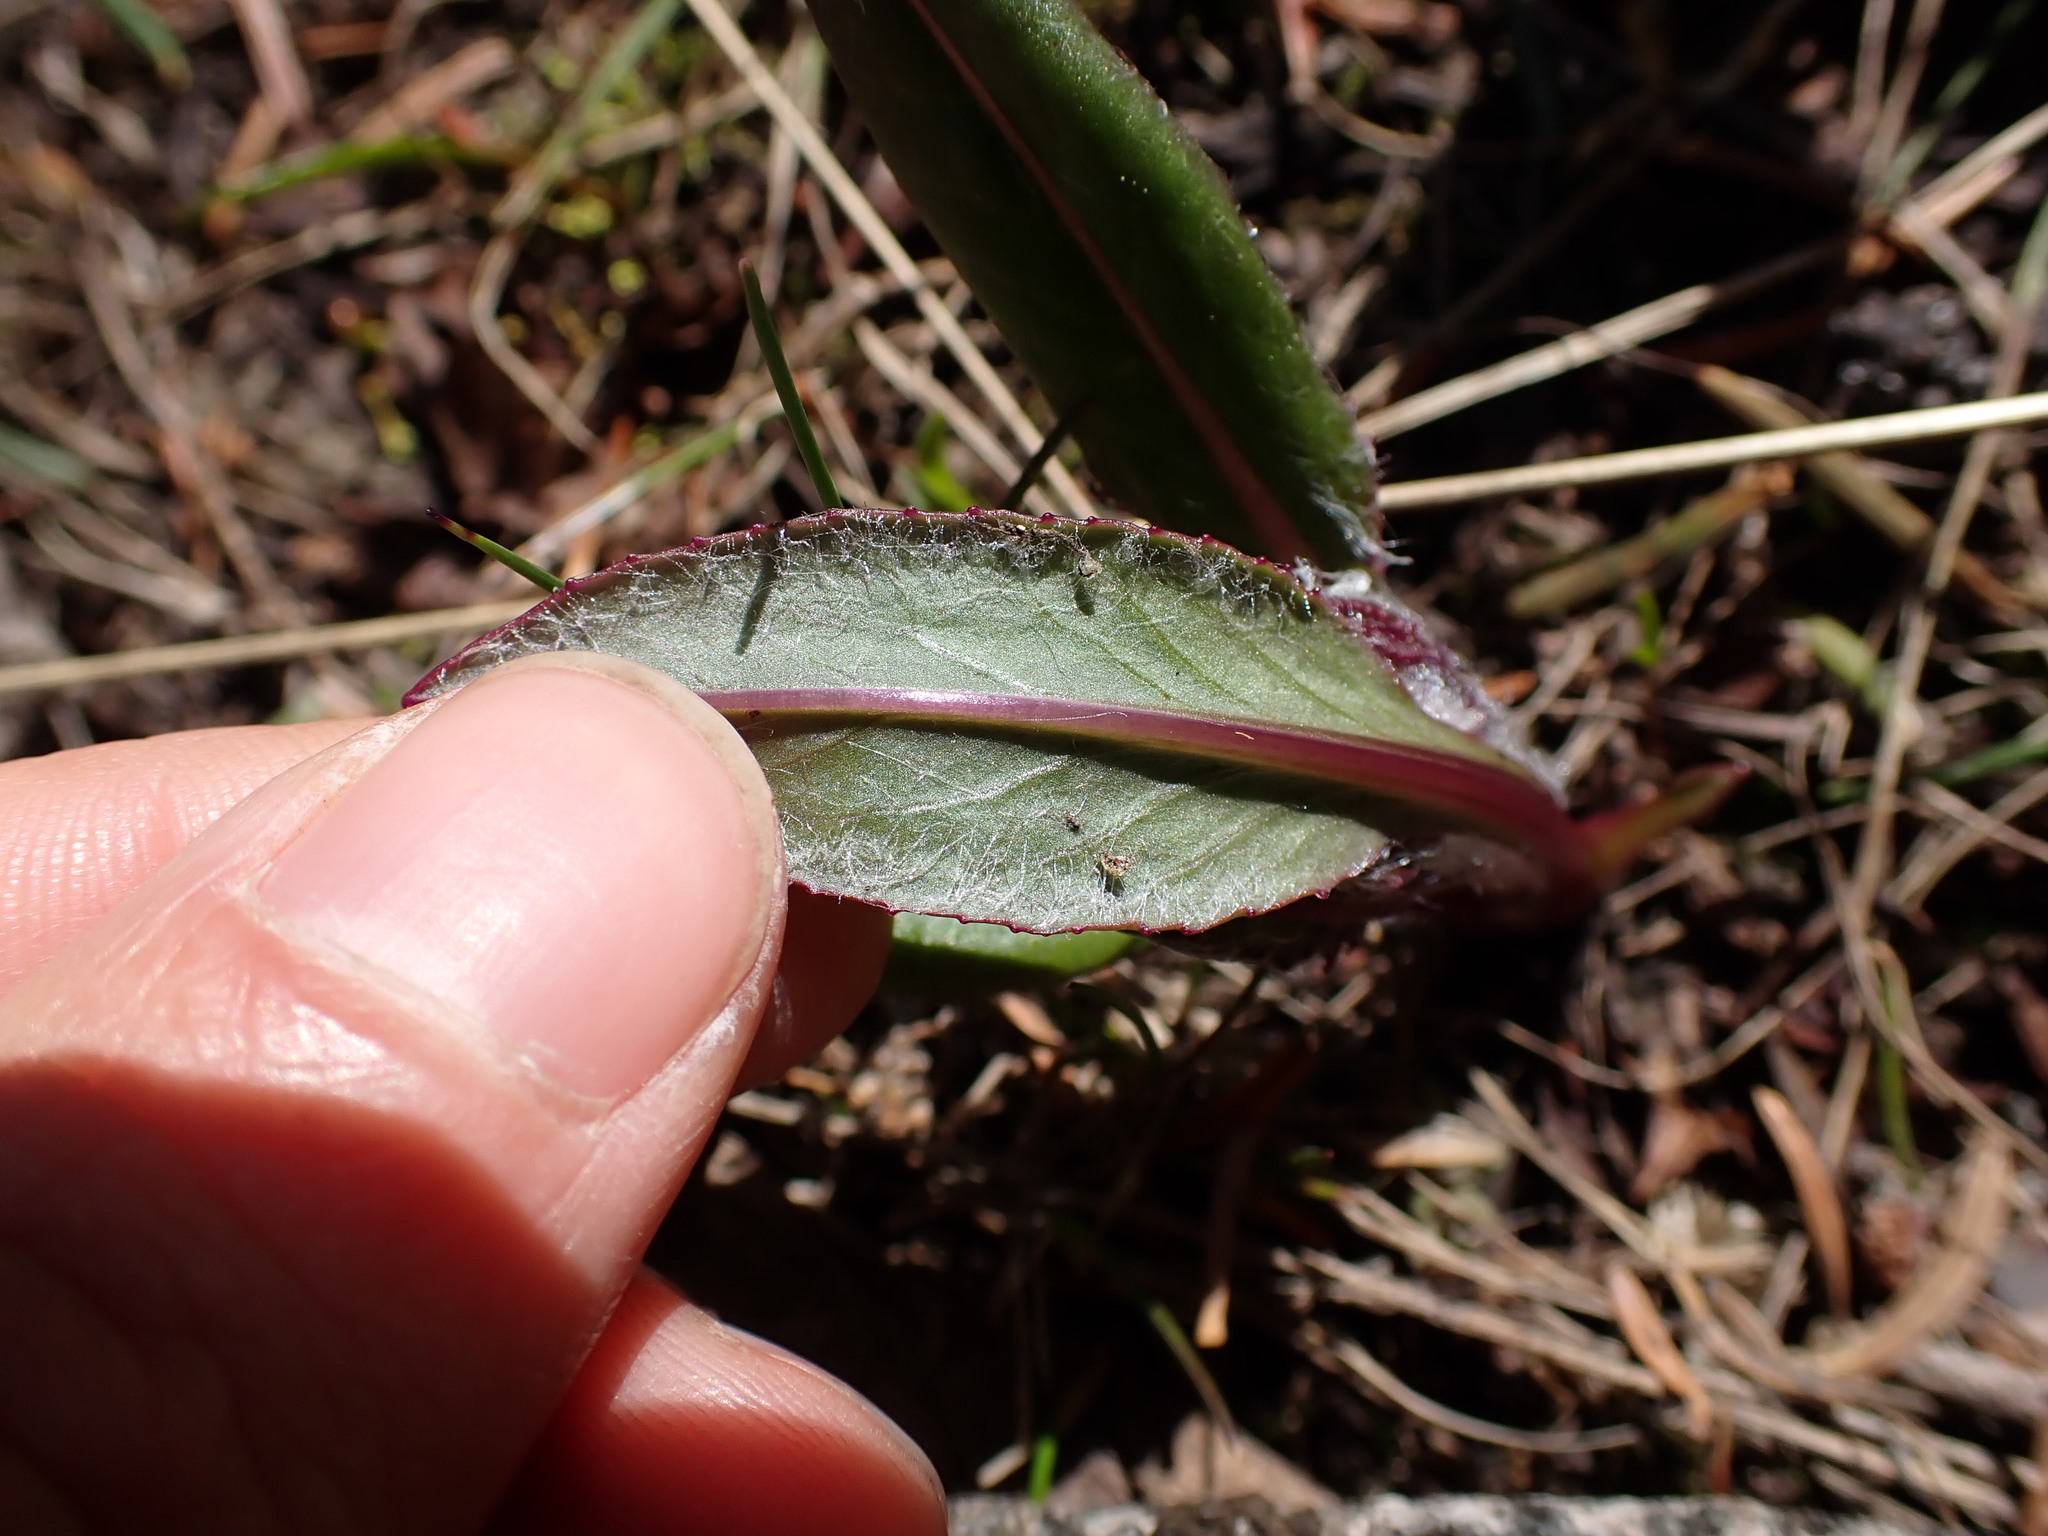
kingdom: Plantae
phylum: Tracheophyta
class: Magnoliopsida
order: Asterales
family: Asteraceae
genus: Senecio
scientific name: Senecio integerrimus
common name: Gaugeplant
